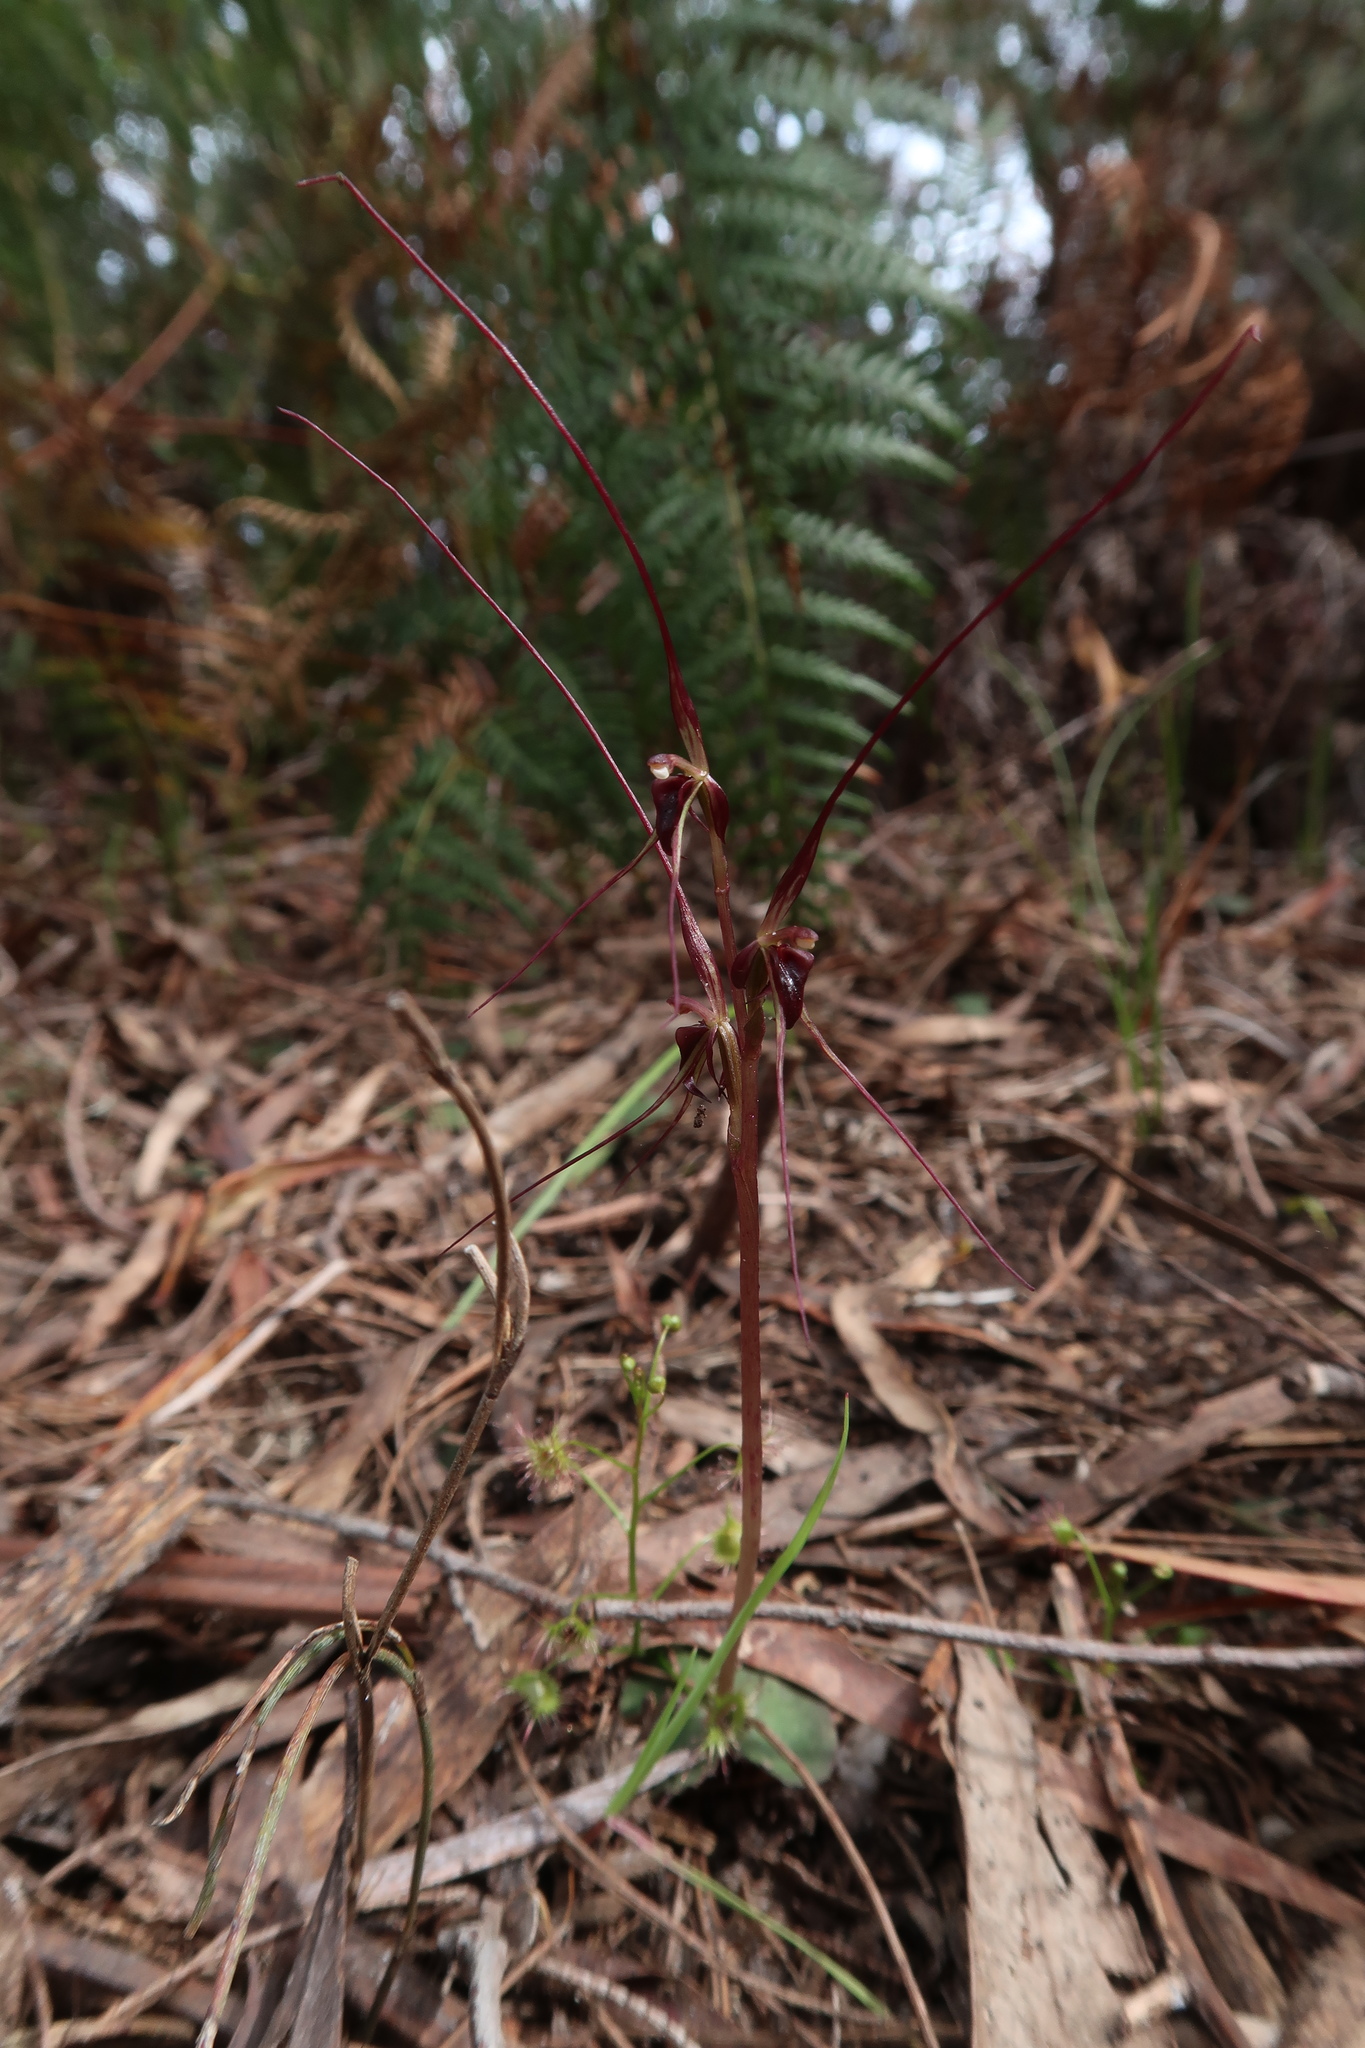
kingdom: Plantae
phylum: Tracheophyta
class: Liliopsida
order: Asparagales
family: Orchidaceae
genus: Acianthus
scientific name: Acianthus caudatus
